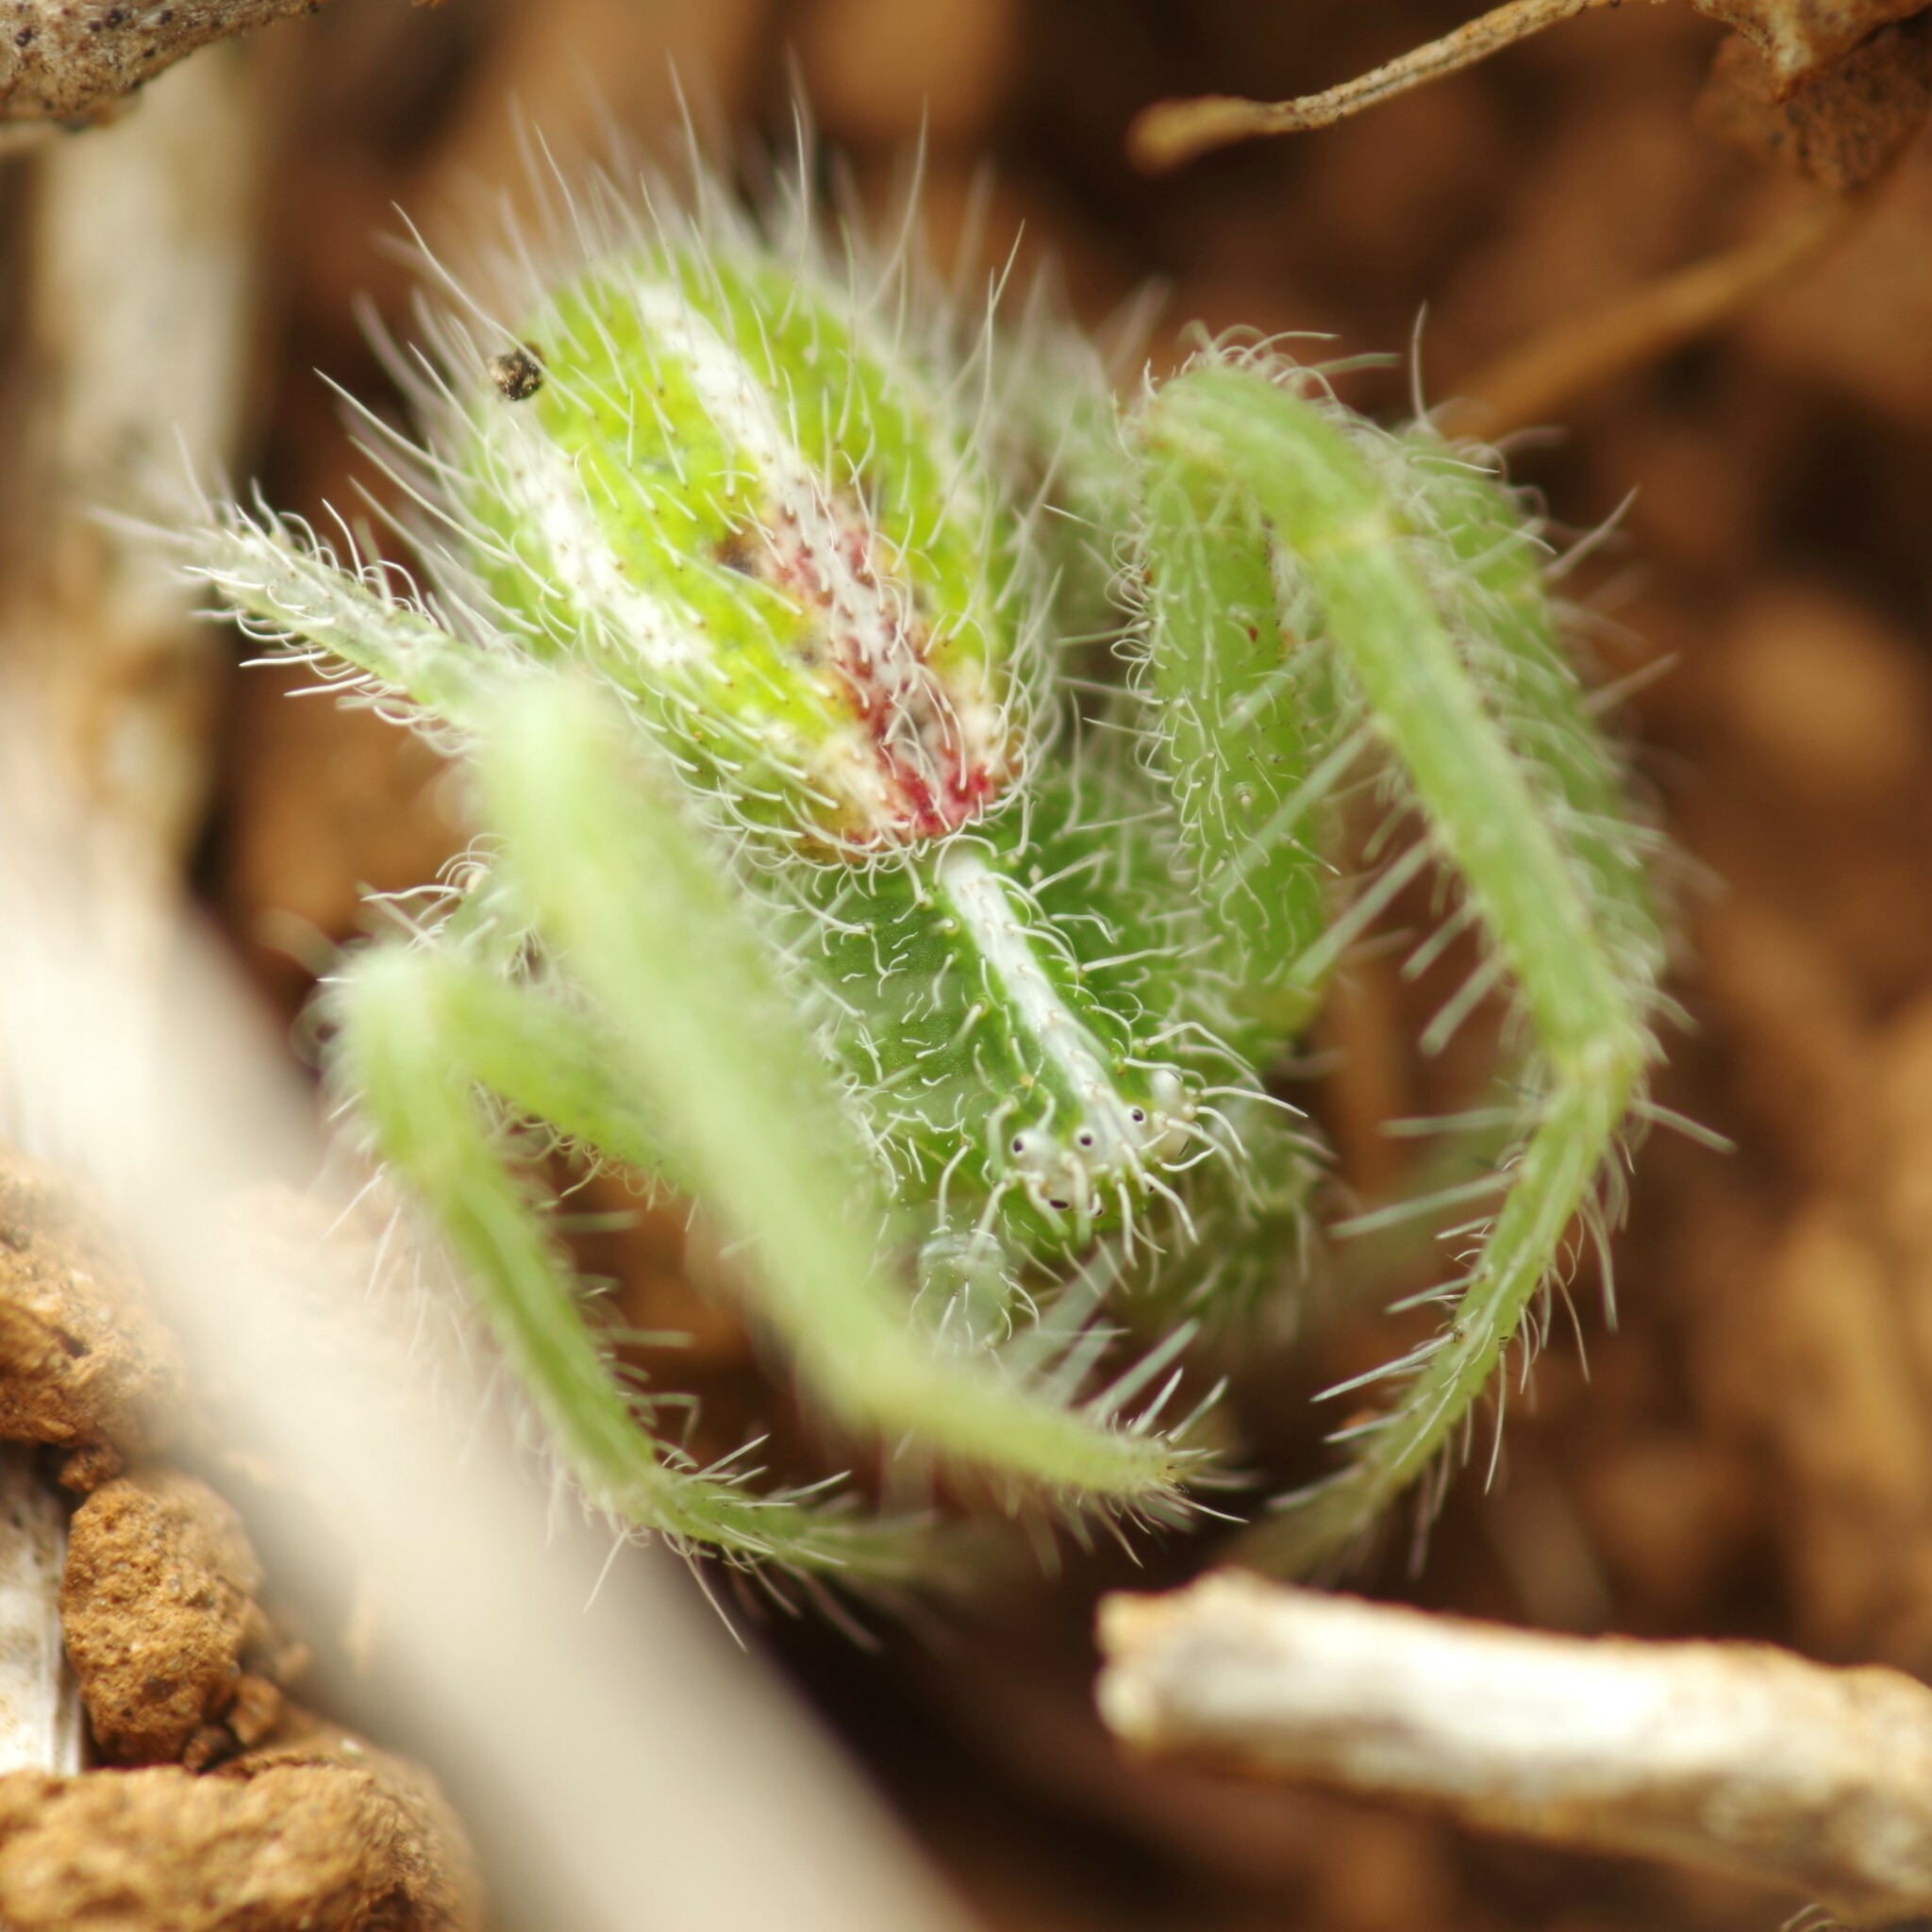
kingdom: Animalia
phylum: Arthropoda
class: Arachnida
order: Araneae
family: Thomisidae
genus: Heriaeus
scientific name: Heriaeus oblongus
